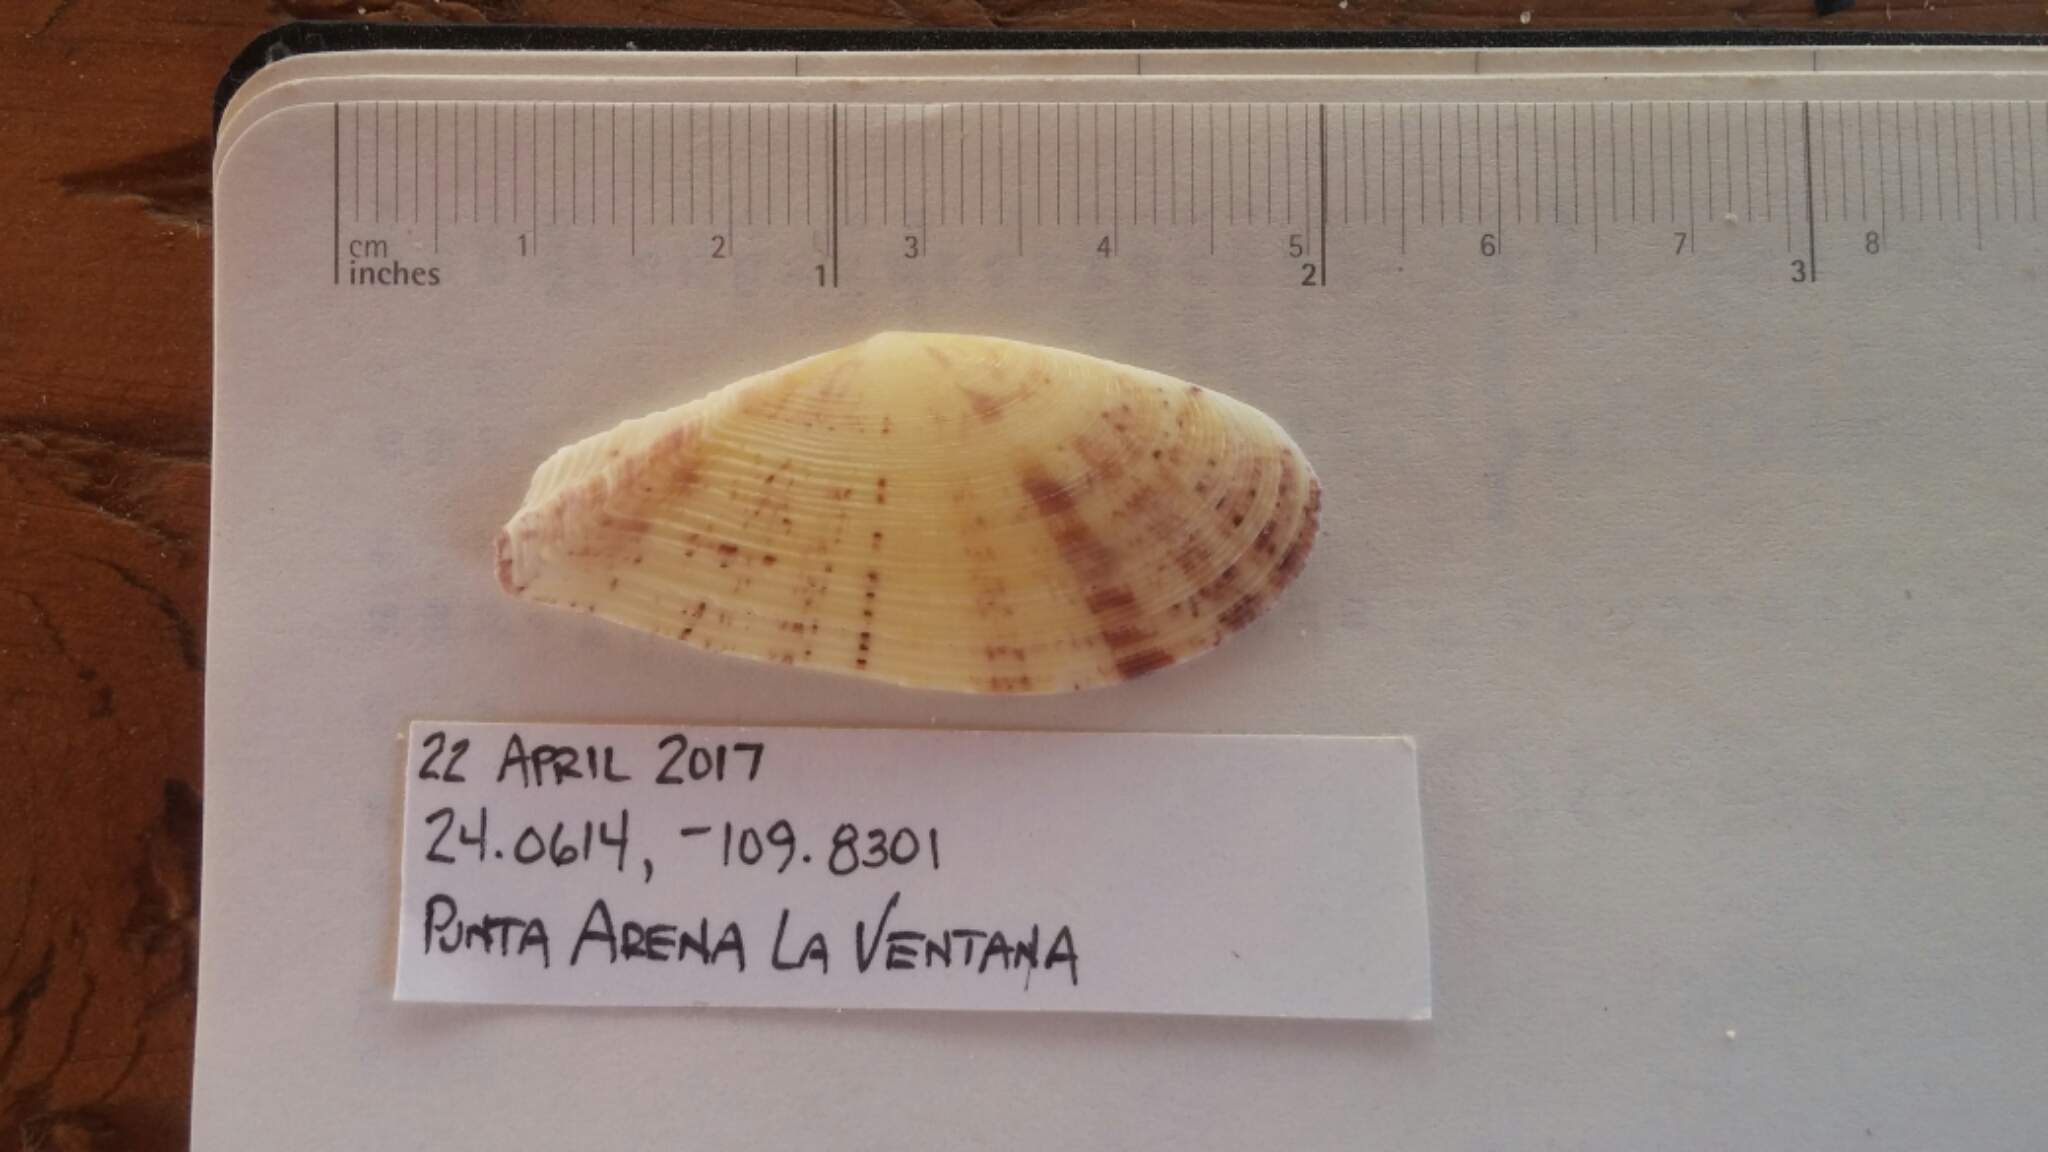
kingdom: Animalia
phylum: Mollusca
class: Bivalvia
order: Cardiida
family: Tellinidae
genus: Tellinella
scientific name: Tellinella zacae
